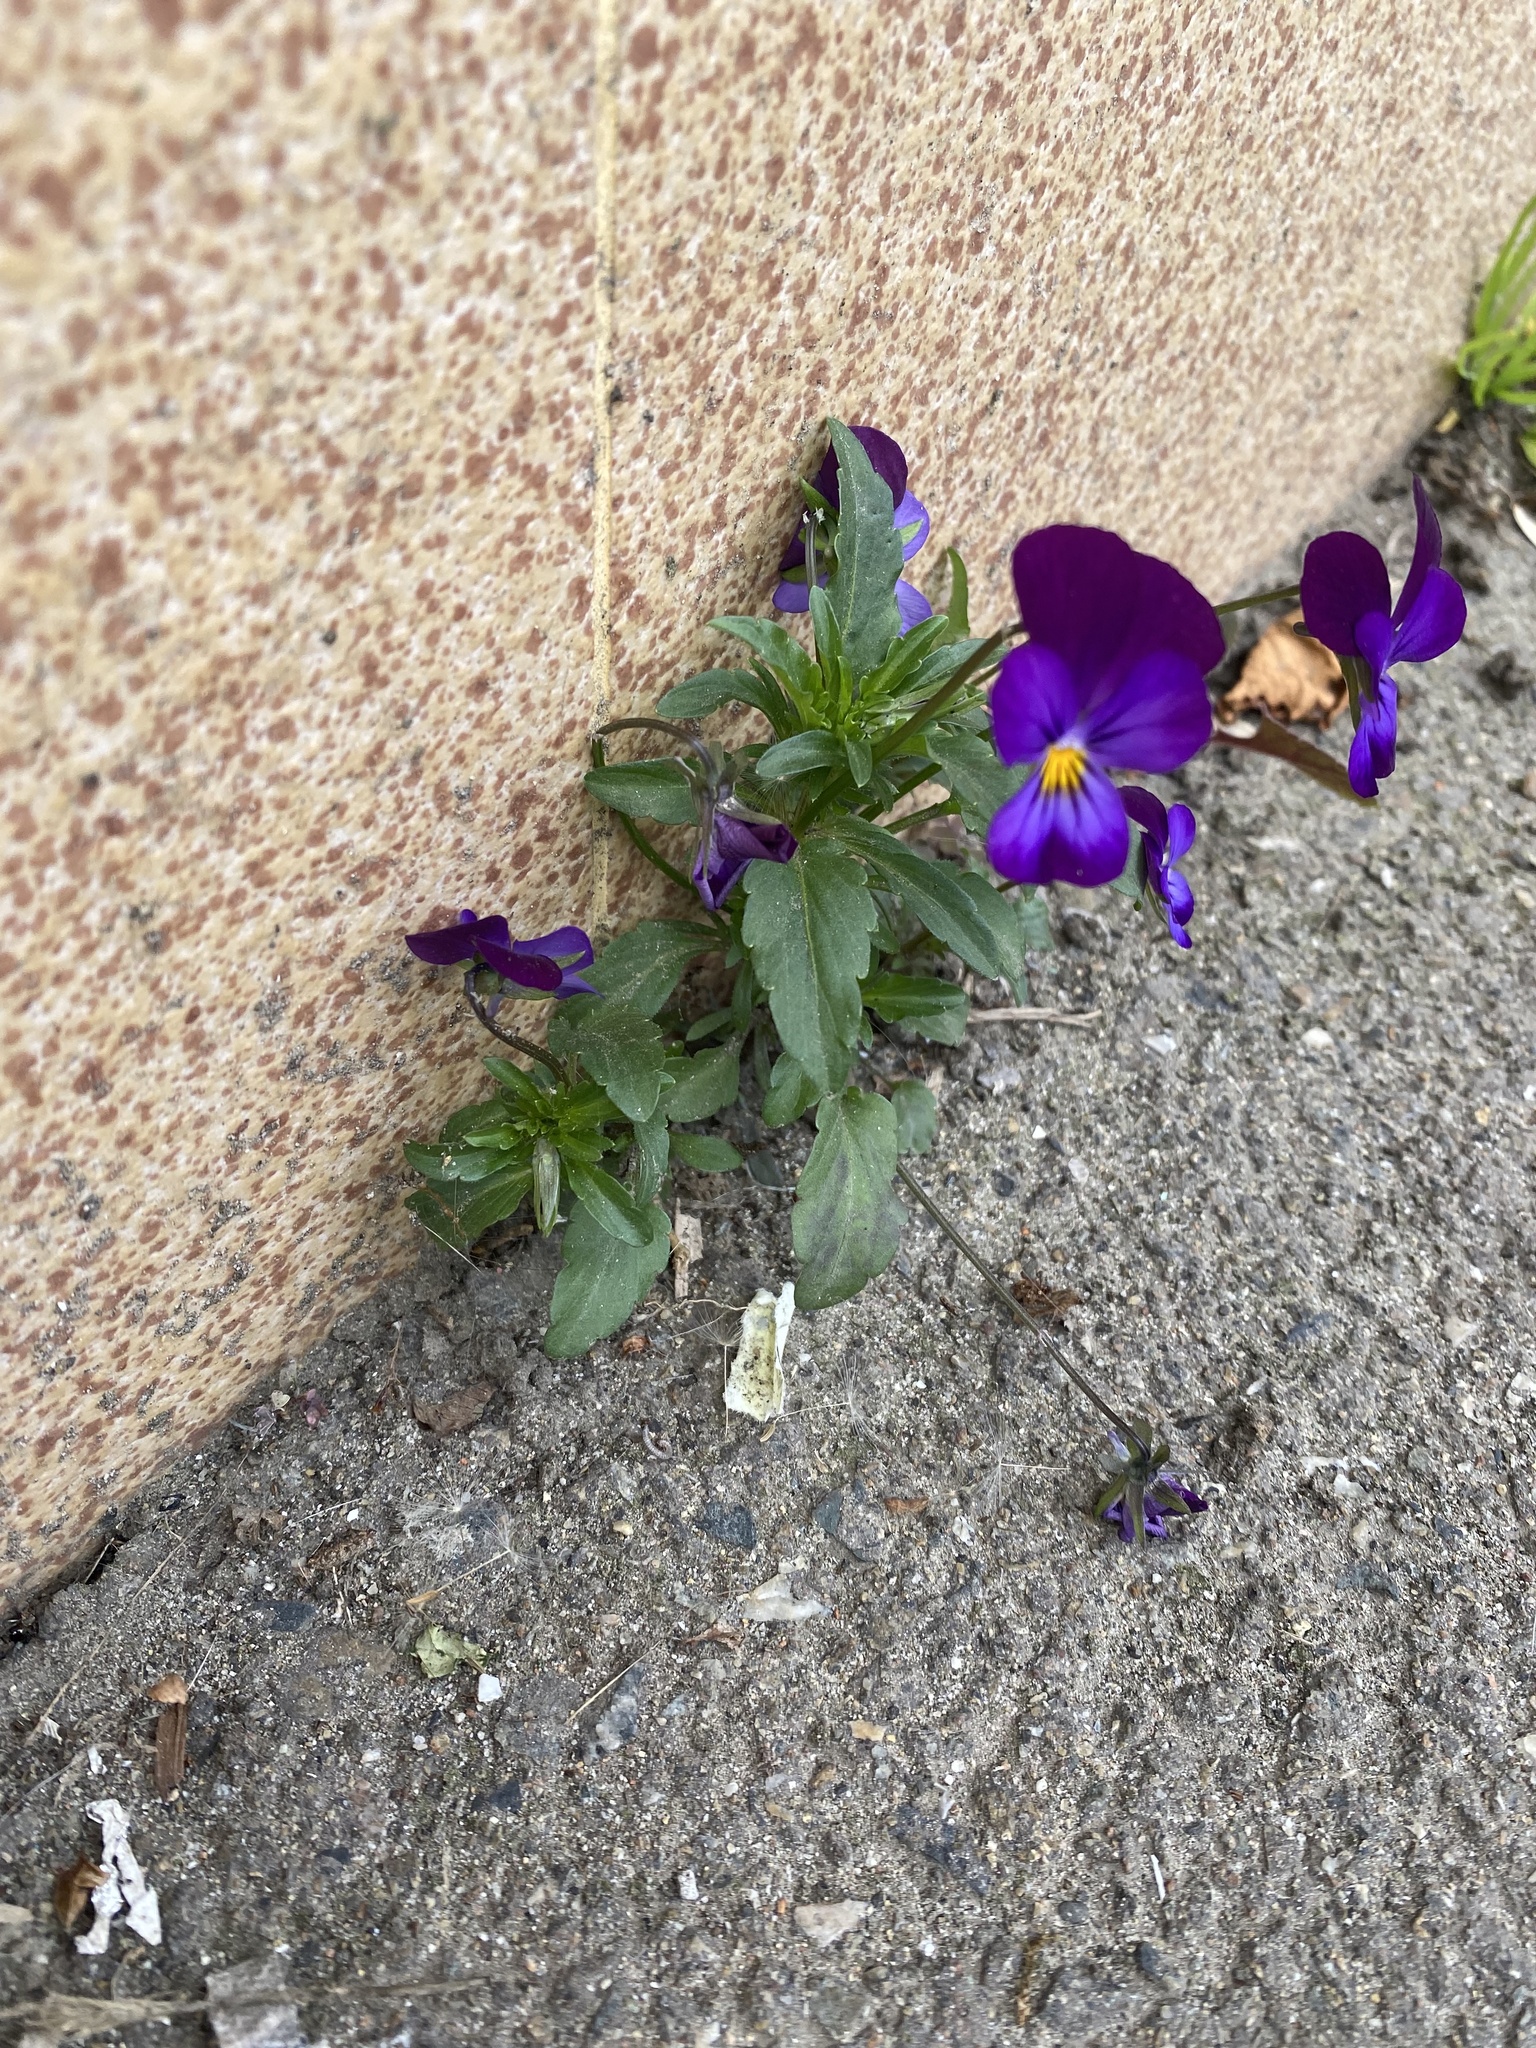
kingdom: Plantae
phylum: Tracheophyta
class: Magnoliopsida
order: Malpighiales
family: Violaceae
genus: Viola
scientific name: Viola wittrockiana
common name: Garden pansy
